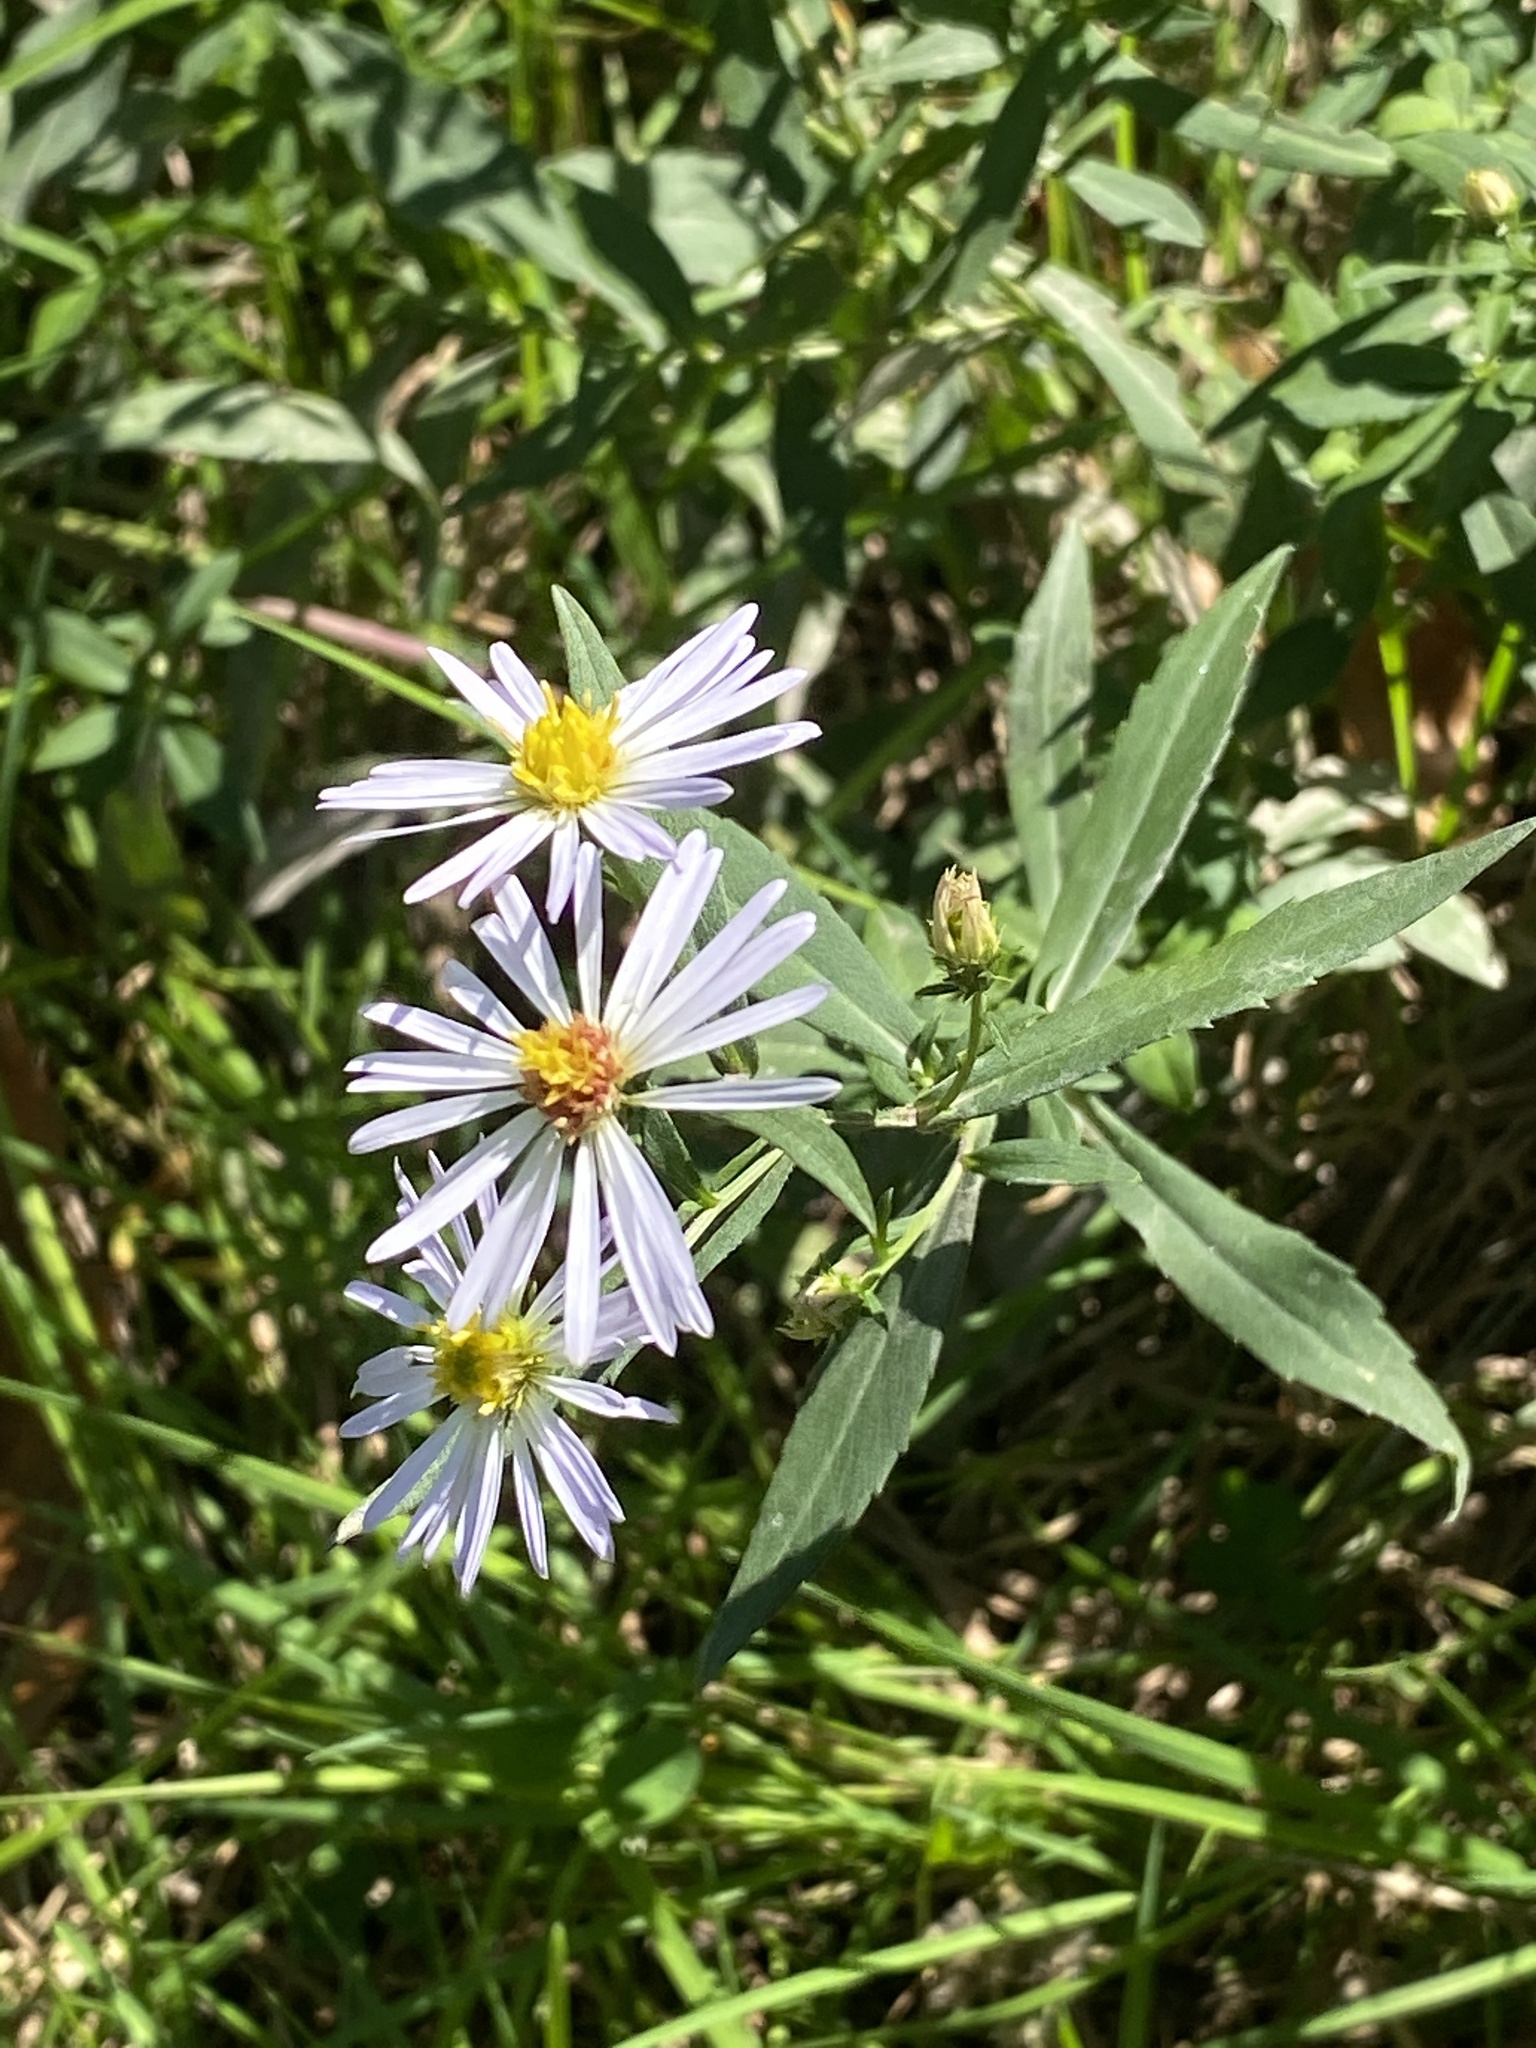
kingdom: Plantae
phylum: Tracheophyta
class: Magnoliopsida
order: Asterales
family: Asteraceae
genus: Symphyotrichum
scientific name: Symphyotrichum lanceolatum
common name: Panicled aster
